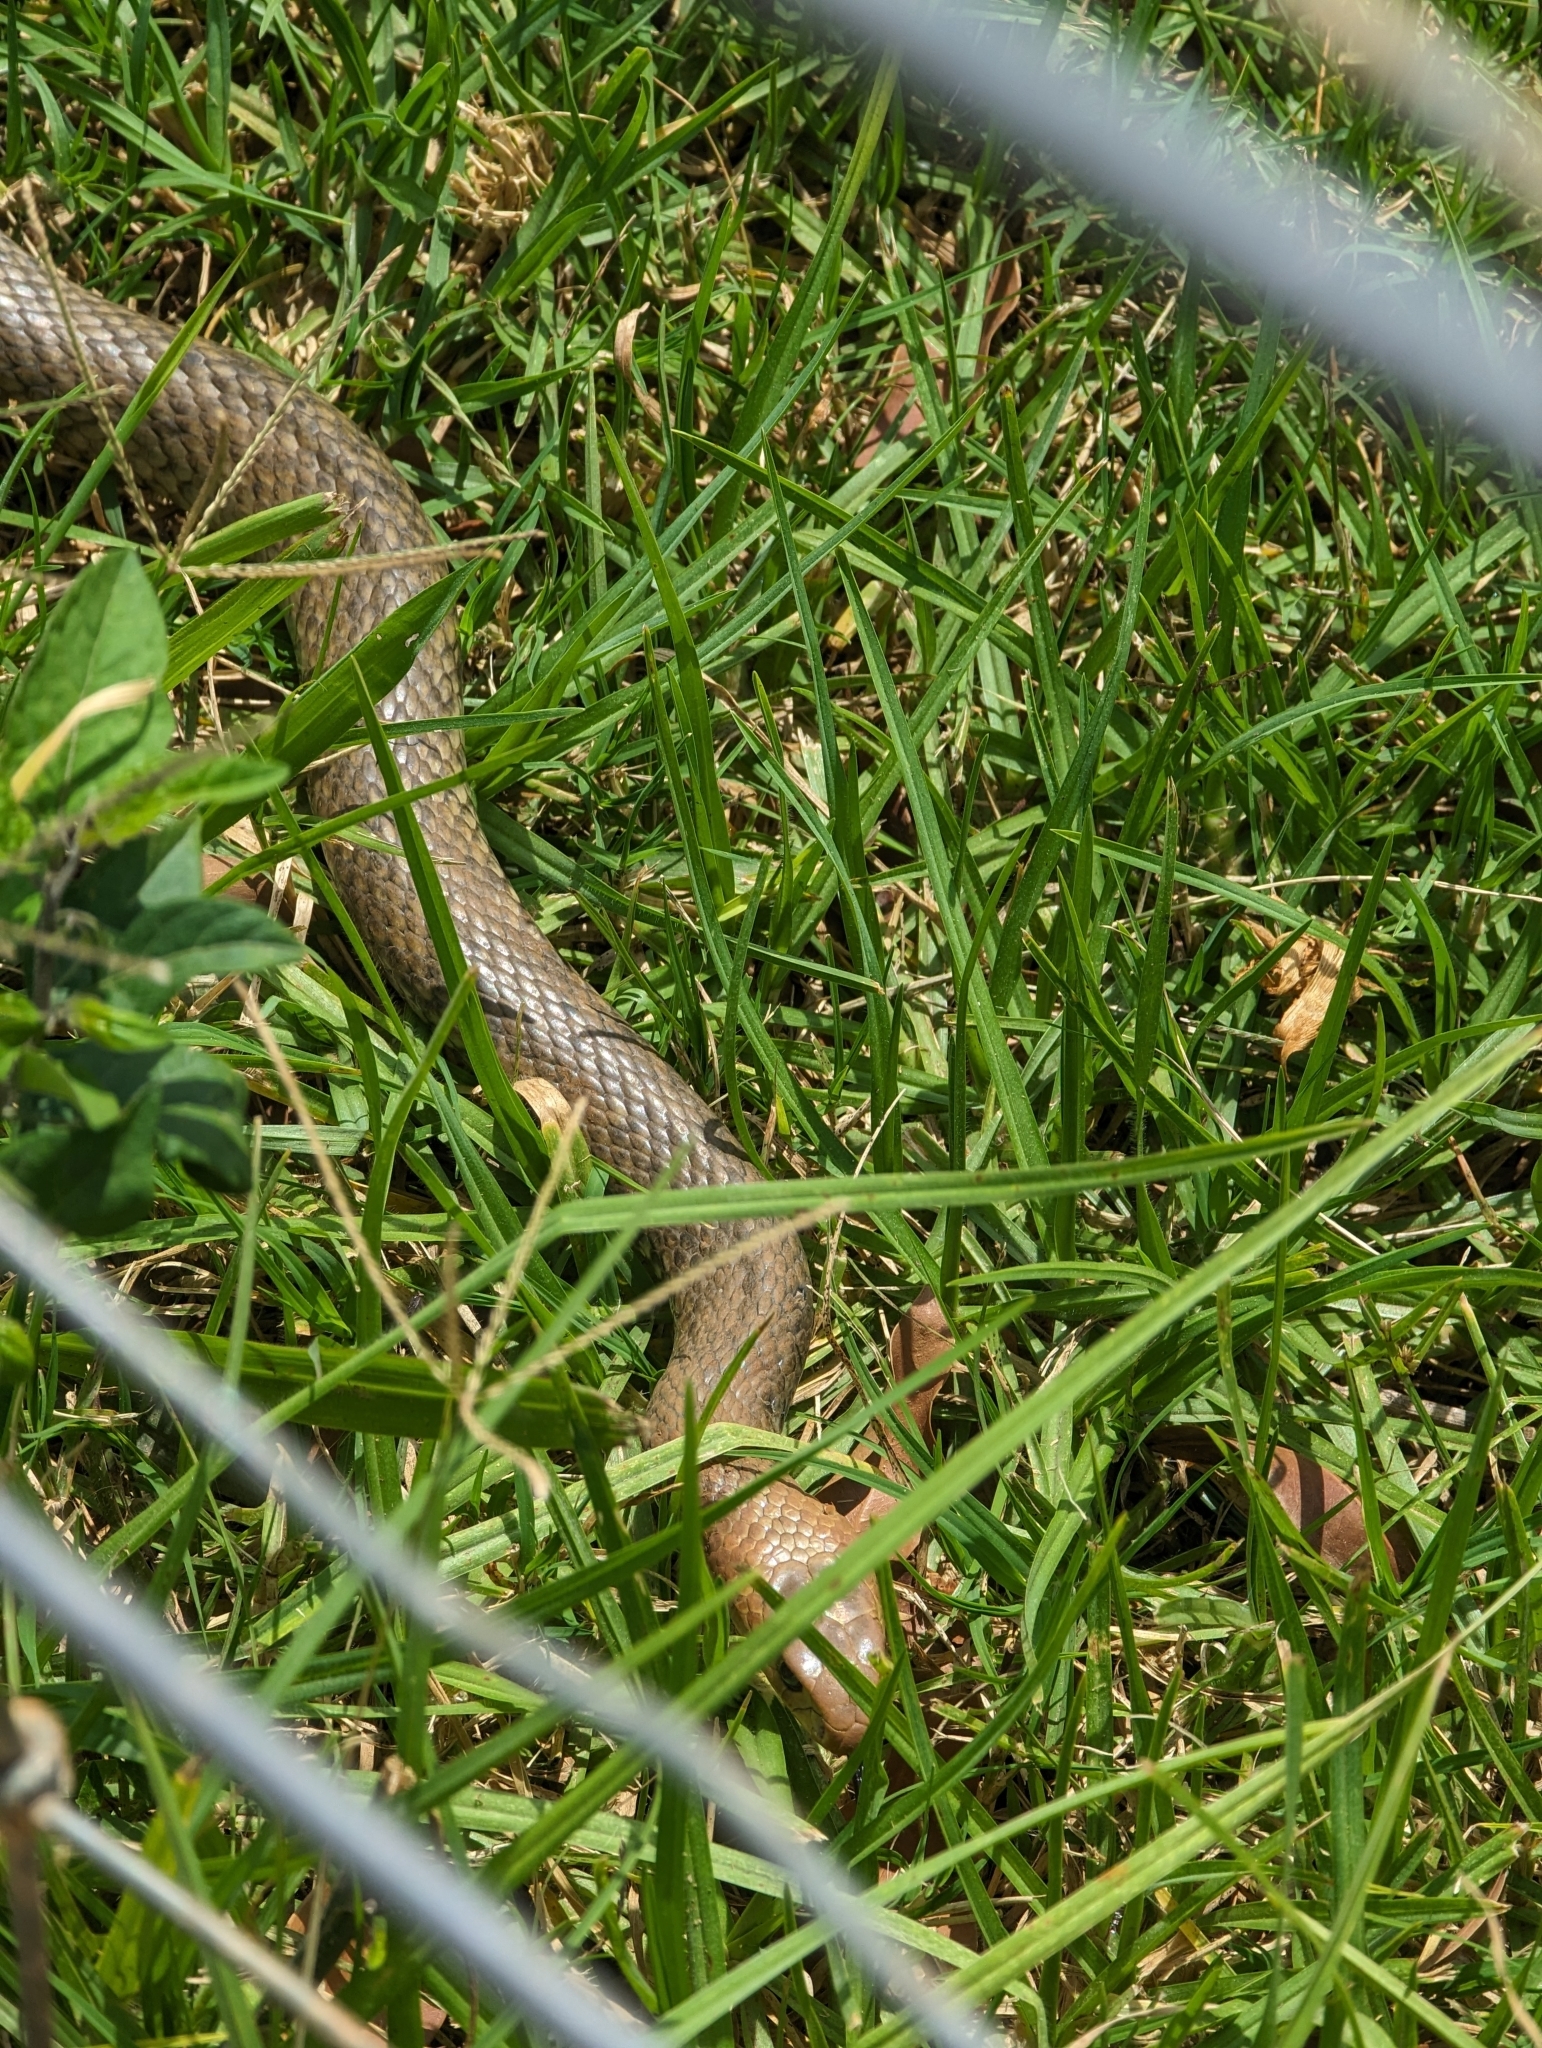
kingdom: Animalia
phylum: Chordata
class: Squamata
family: Elapidae
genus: Pseudonaja
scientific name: Pseudonaja textilis
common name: Eastern brown snake
